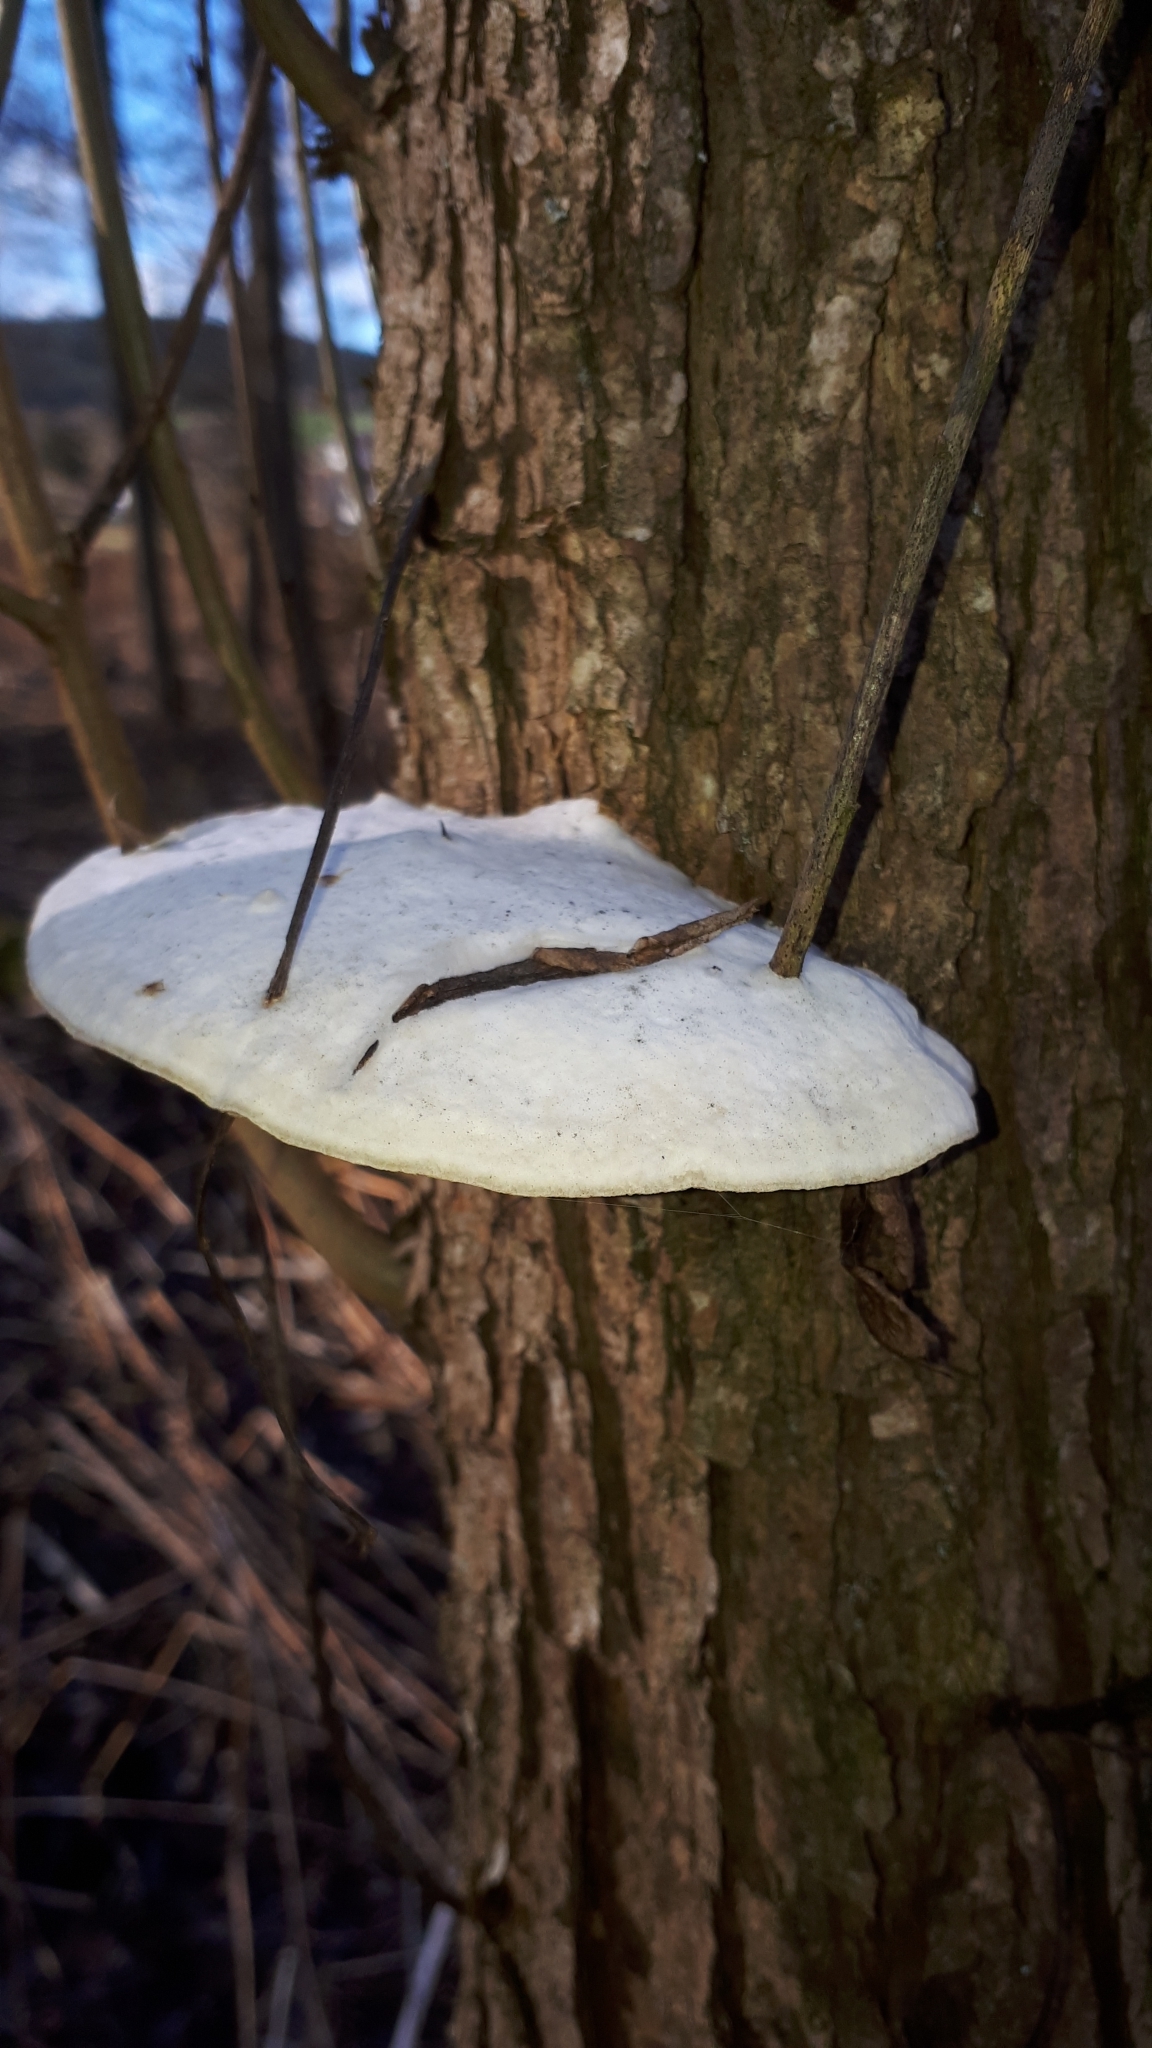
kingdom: Fungi
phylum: Basidiomycota
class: Agaricomycetes
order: Polyporales
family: Polyporaceae
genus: Trametes
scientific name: Trametes suaveolens
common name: Fragrant bracket
